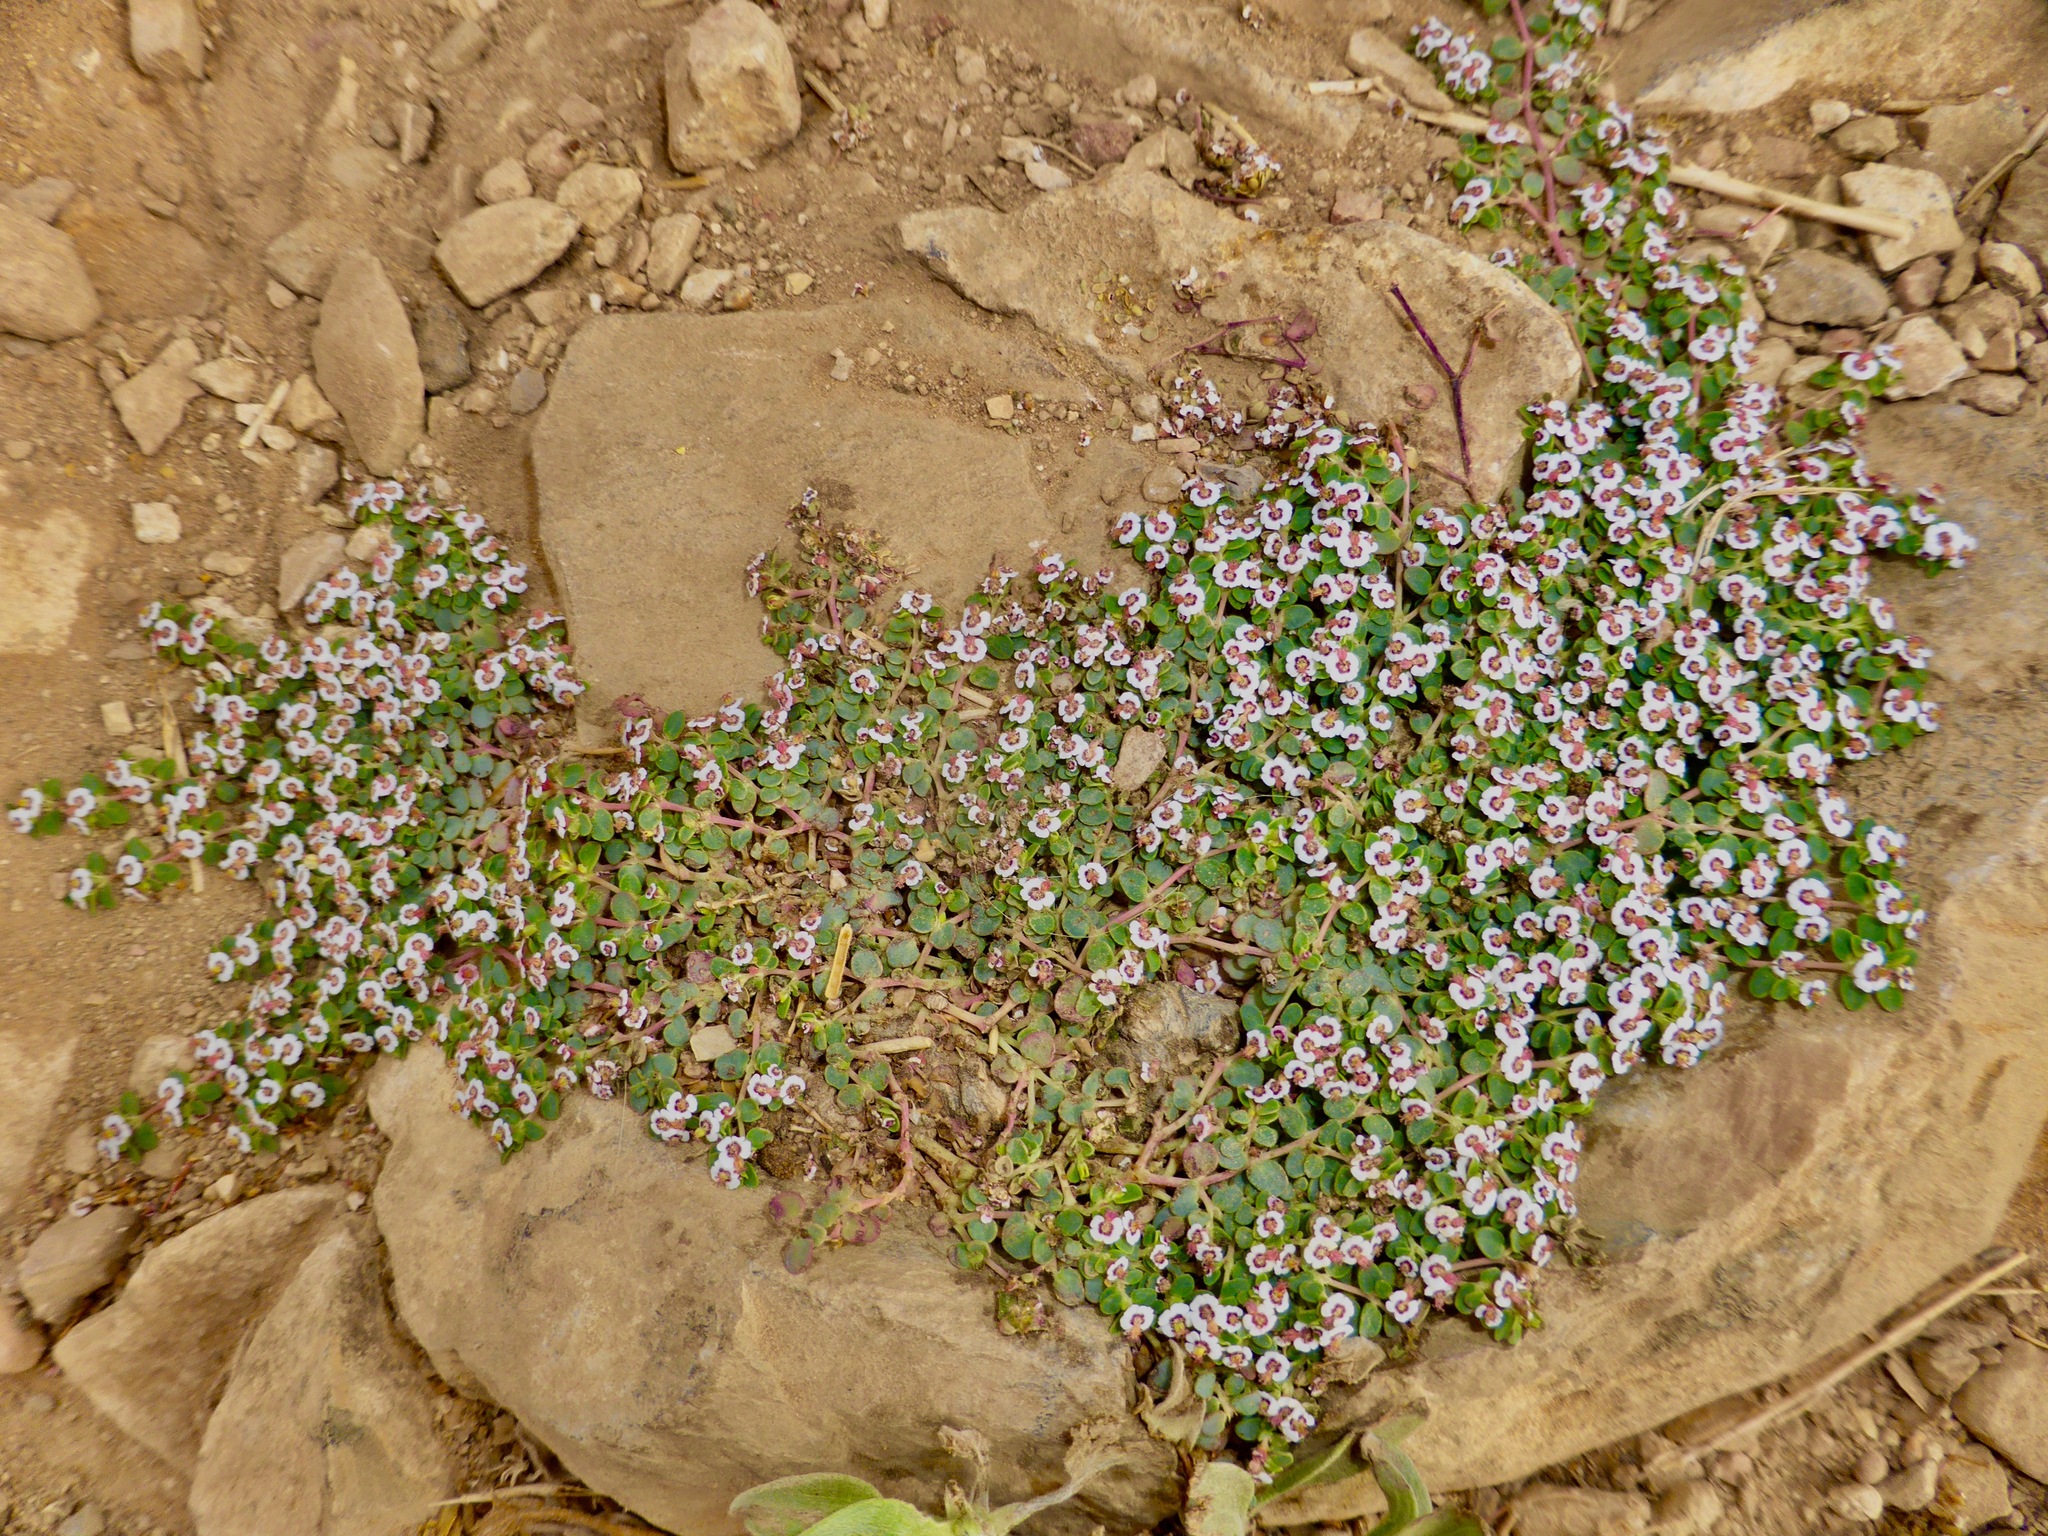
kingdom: Plantae
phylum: Tracheophyta
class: Magnoliopsida
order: Malpighiales
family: Euphorbiaceae
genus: Euphorbia
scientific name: Euphorbia polycarpa
